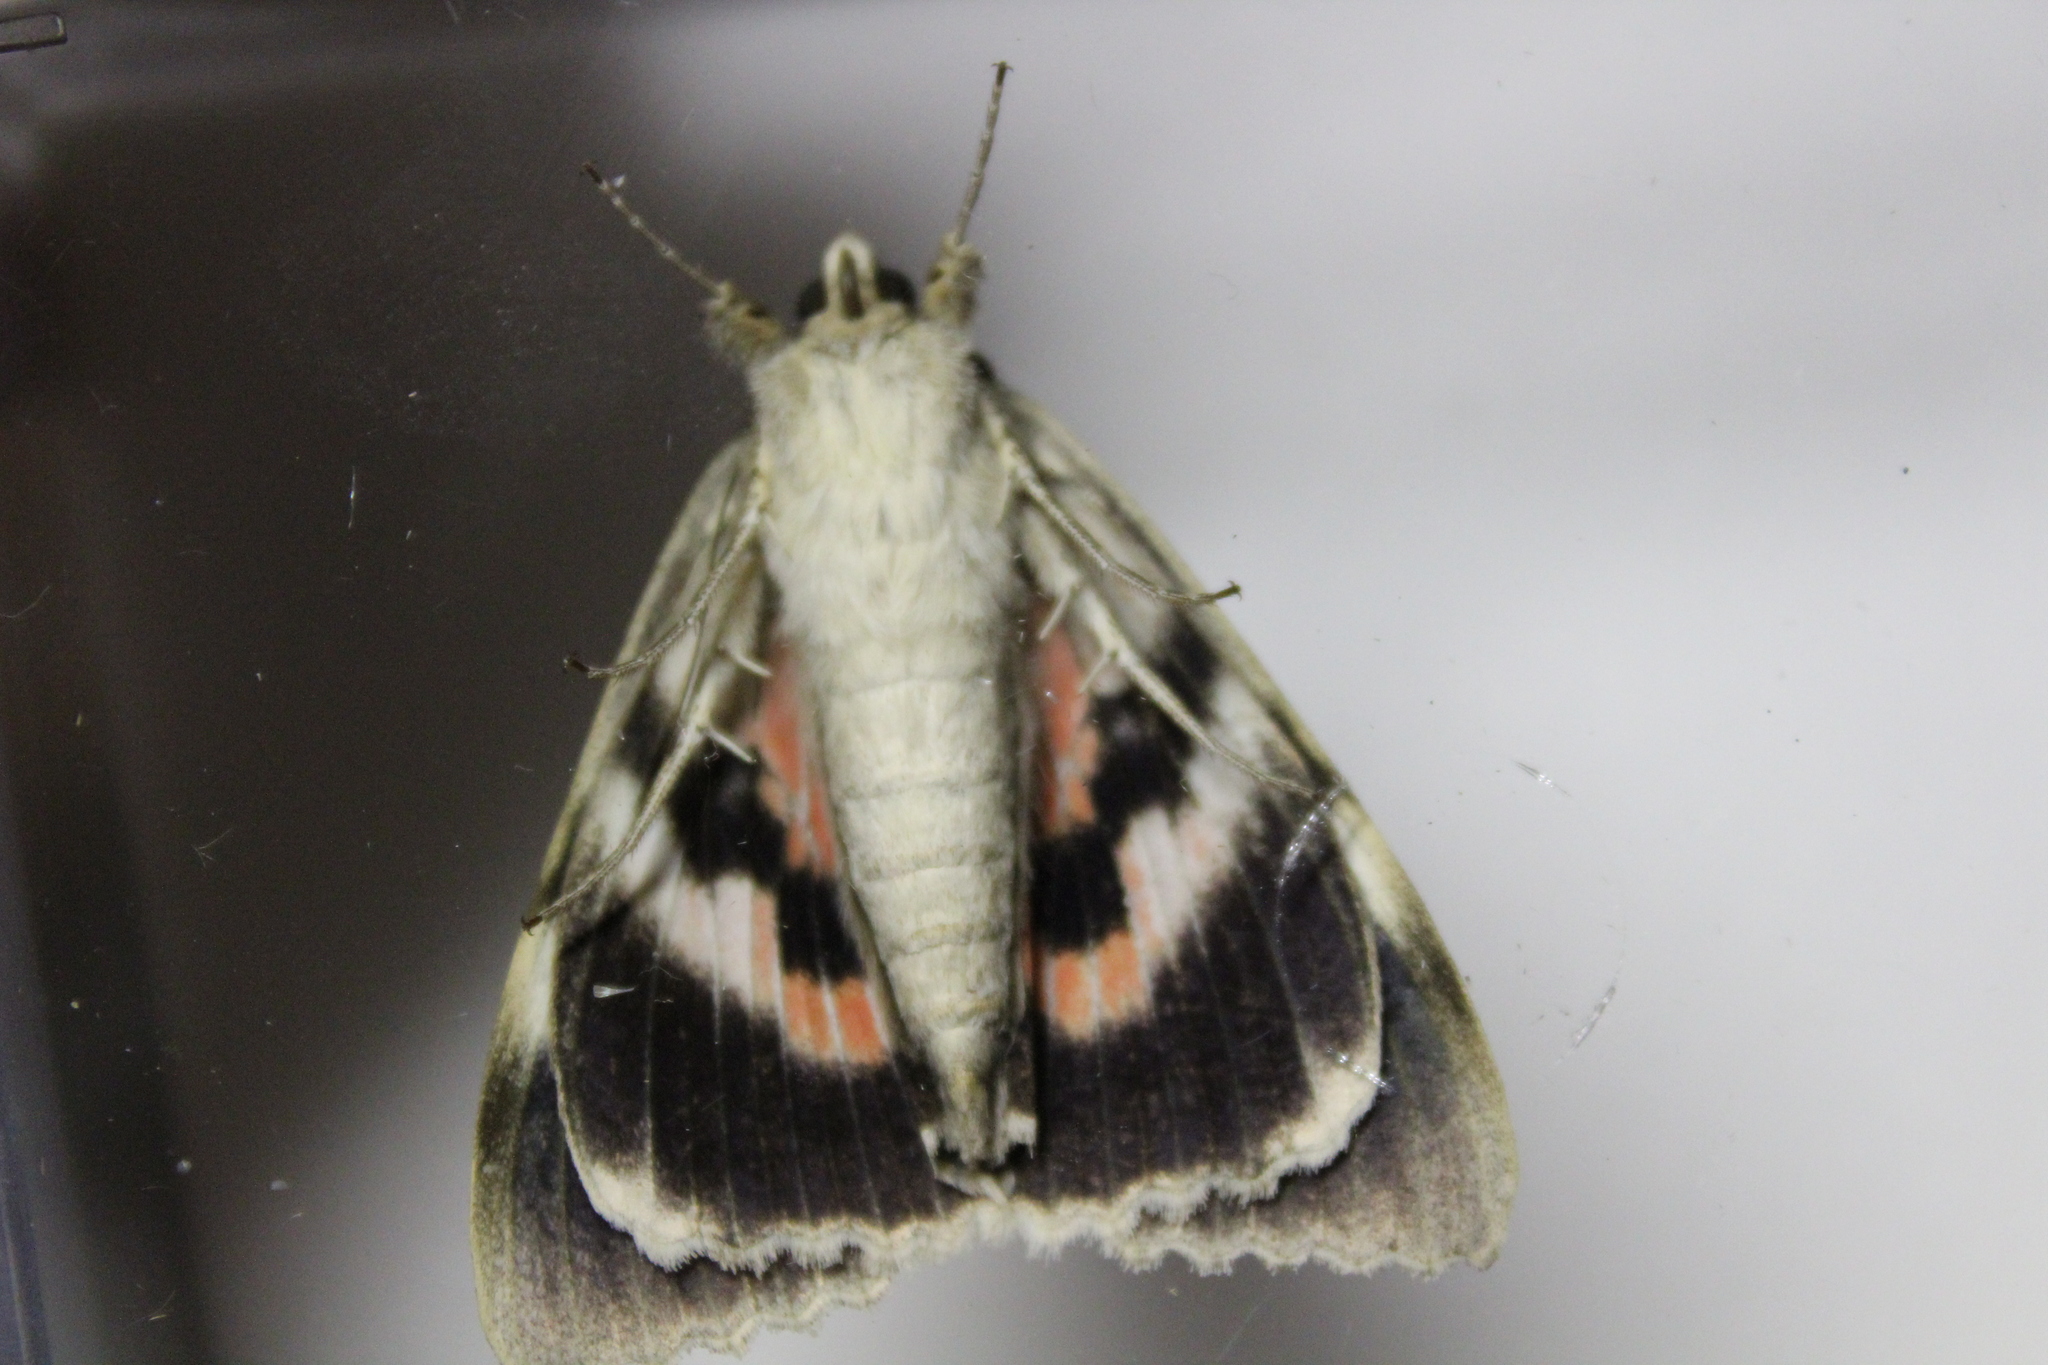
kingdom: Animalia
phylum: Arthropoda
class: Insecta
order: Lepidoptera
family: Erebidae
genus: Catocala
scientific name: Catocala nupta
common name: Red underwing
